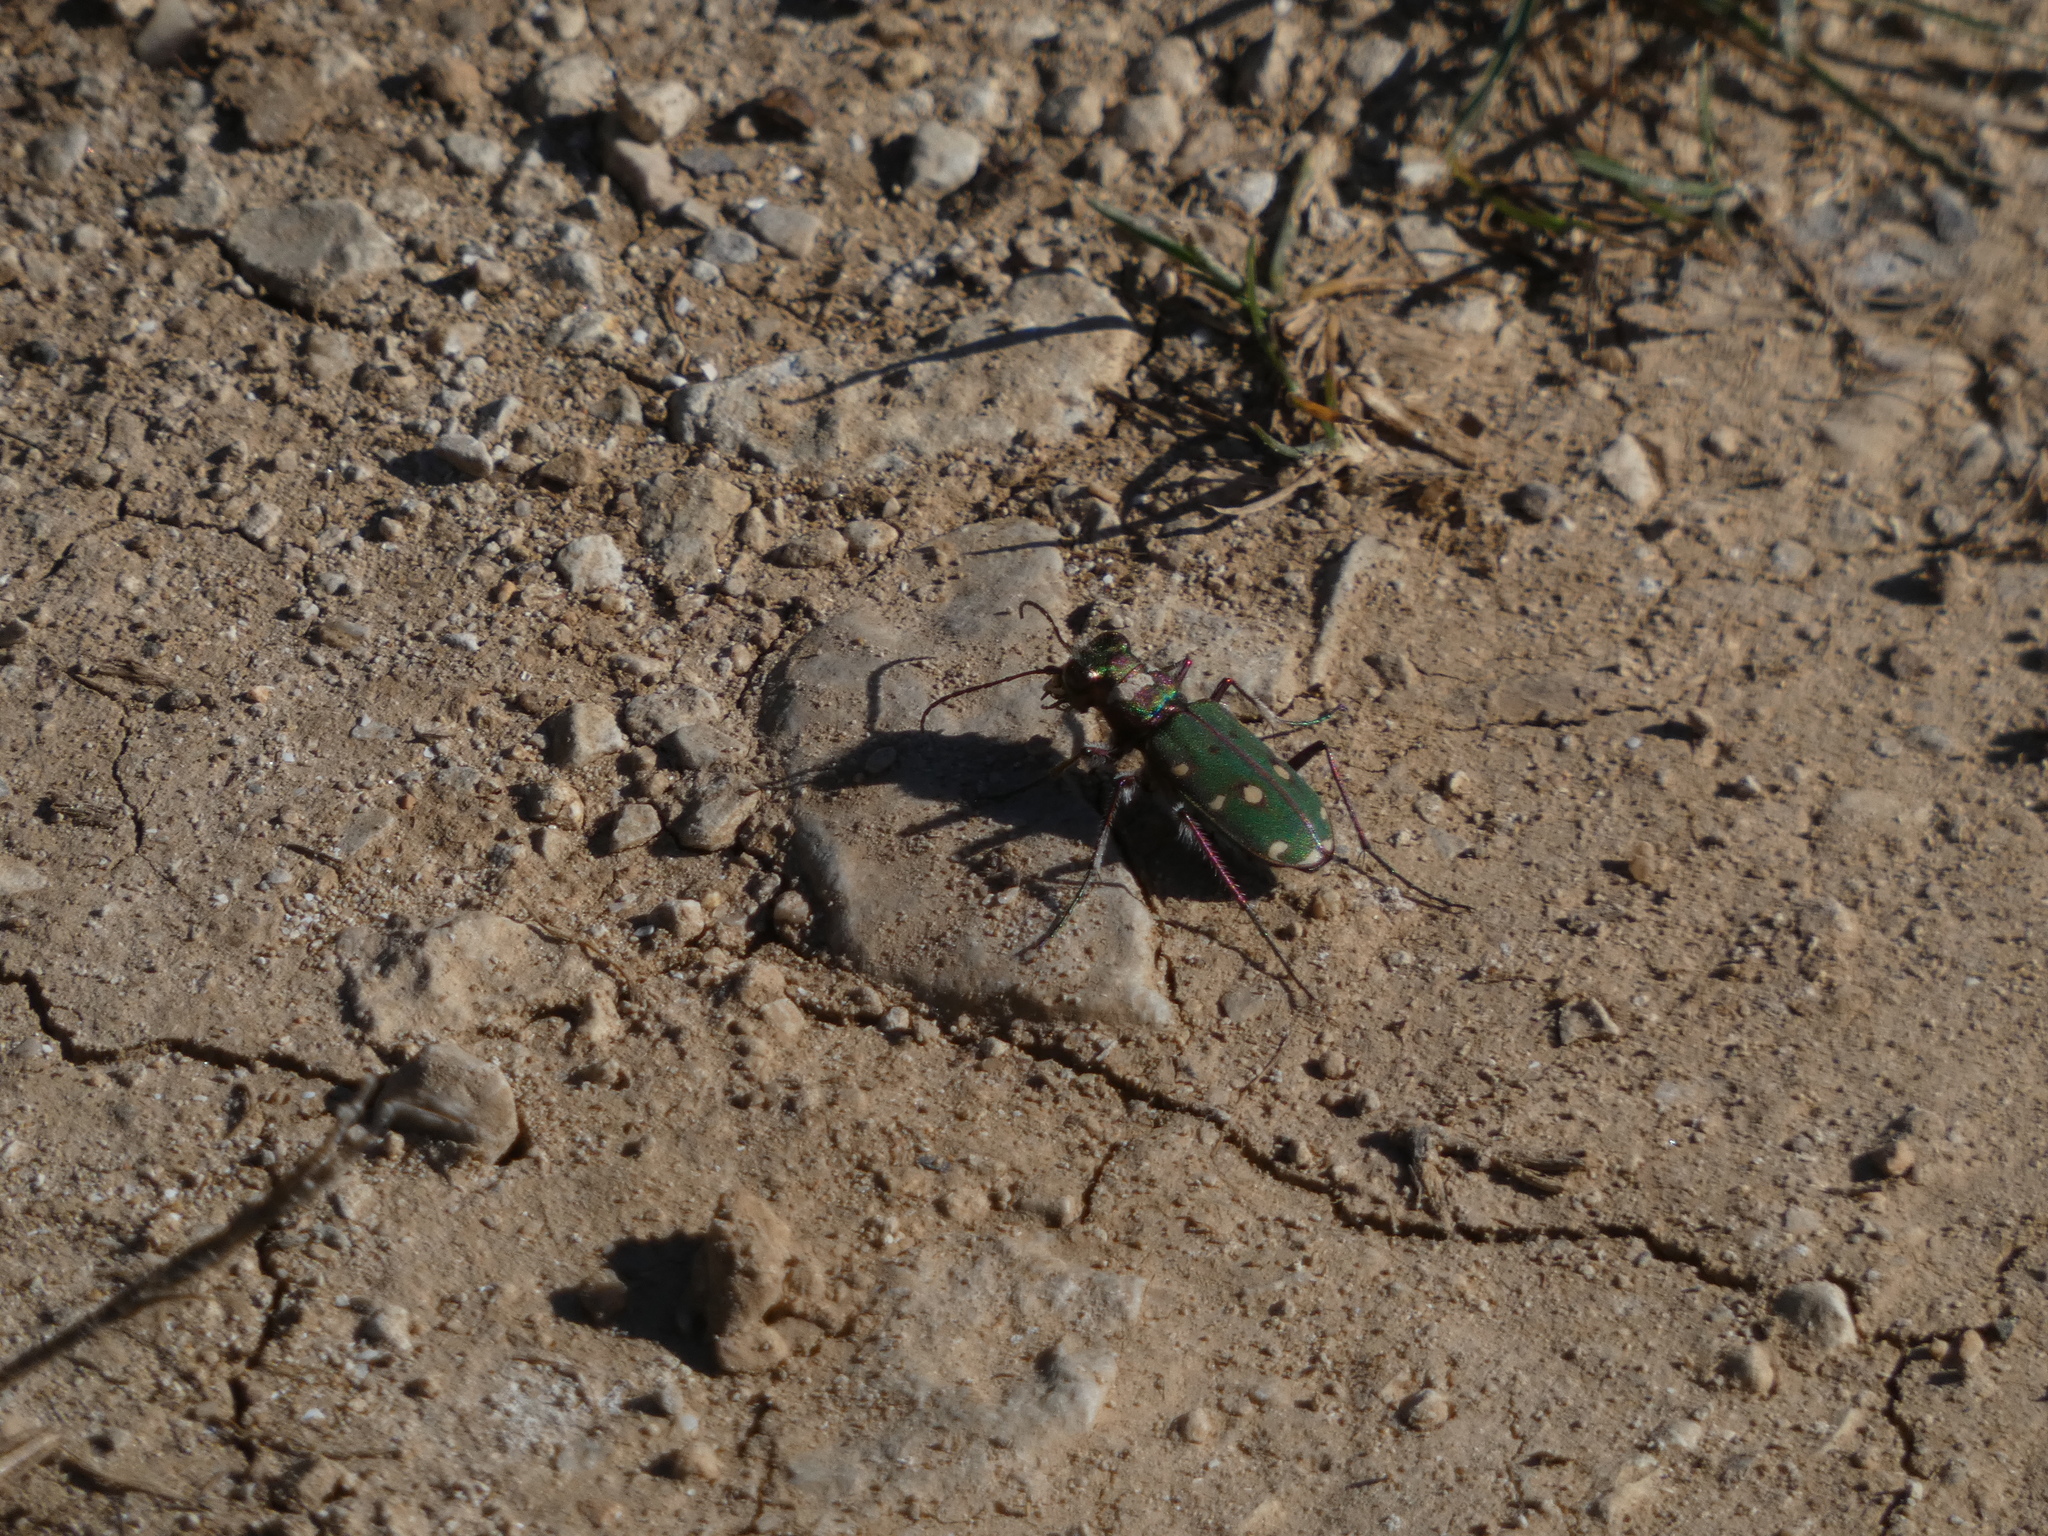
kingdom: Animalia
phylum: Arthropoda
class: Insecta
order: Coleoptera
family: Carabidae
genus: Cicindela
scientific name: Cicindela maroccana
